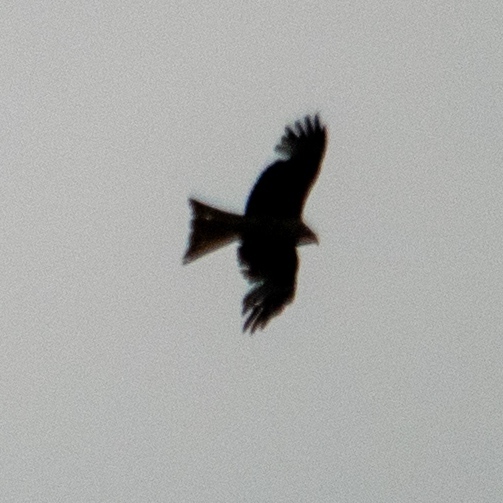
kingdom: Animalia
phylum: Chordata
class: Aves
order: Accipitriformes
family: Accipitridae
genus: Milvus
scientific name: Milvus migrans
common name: Black kite
